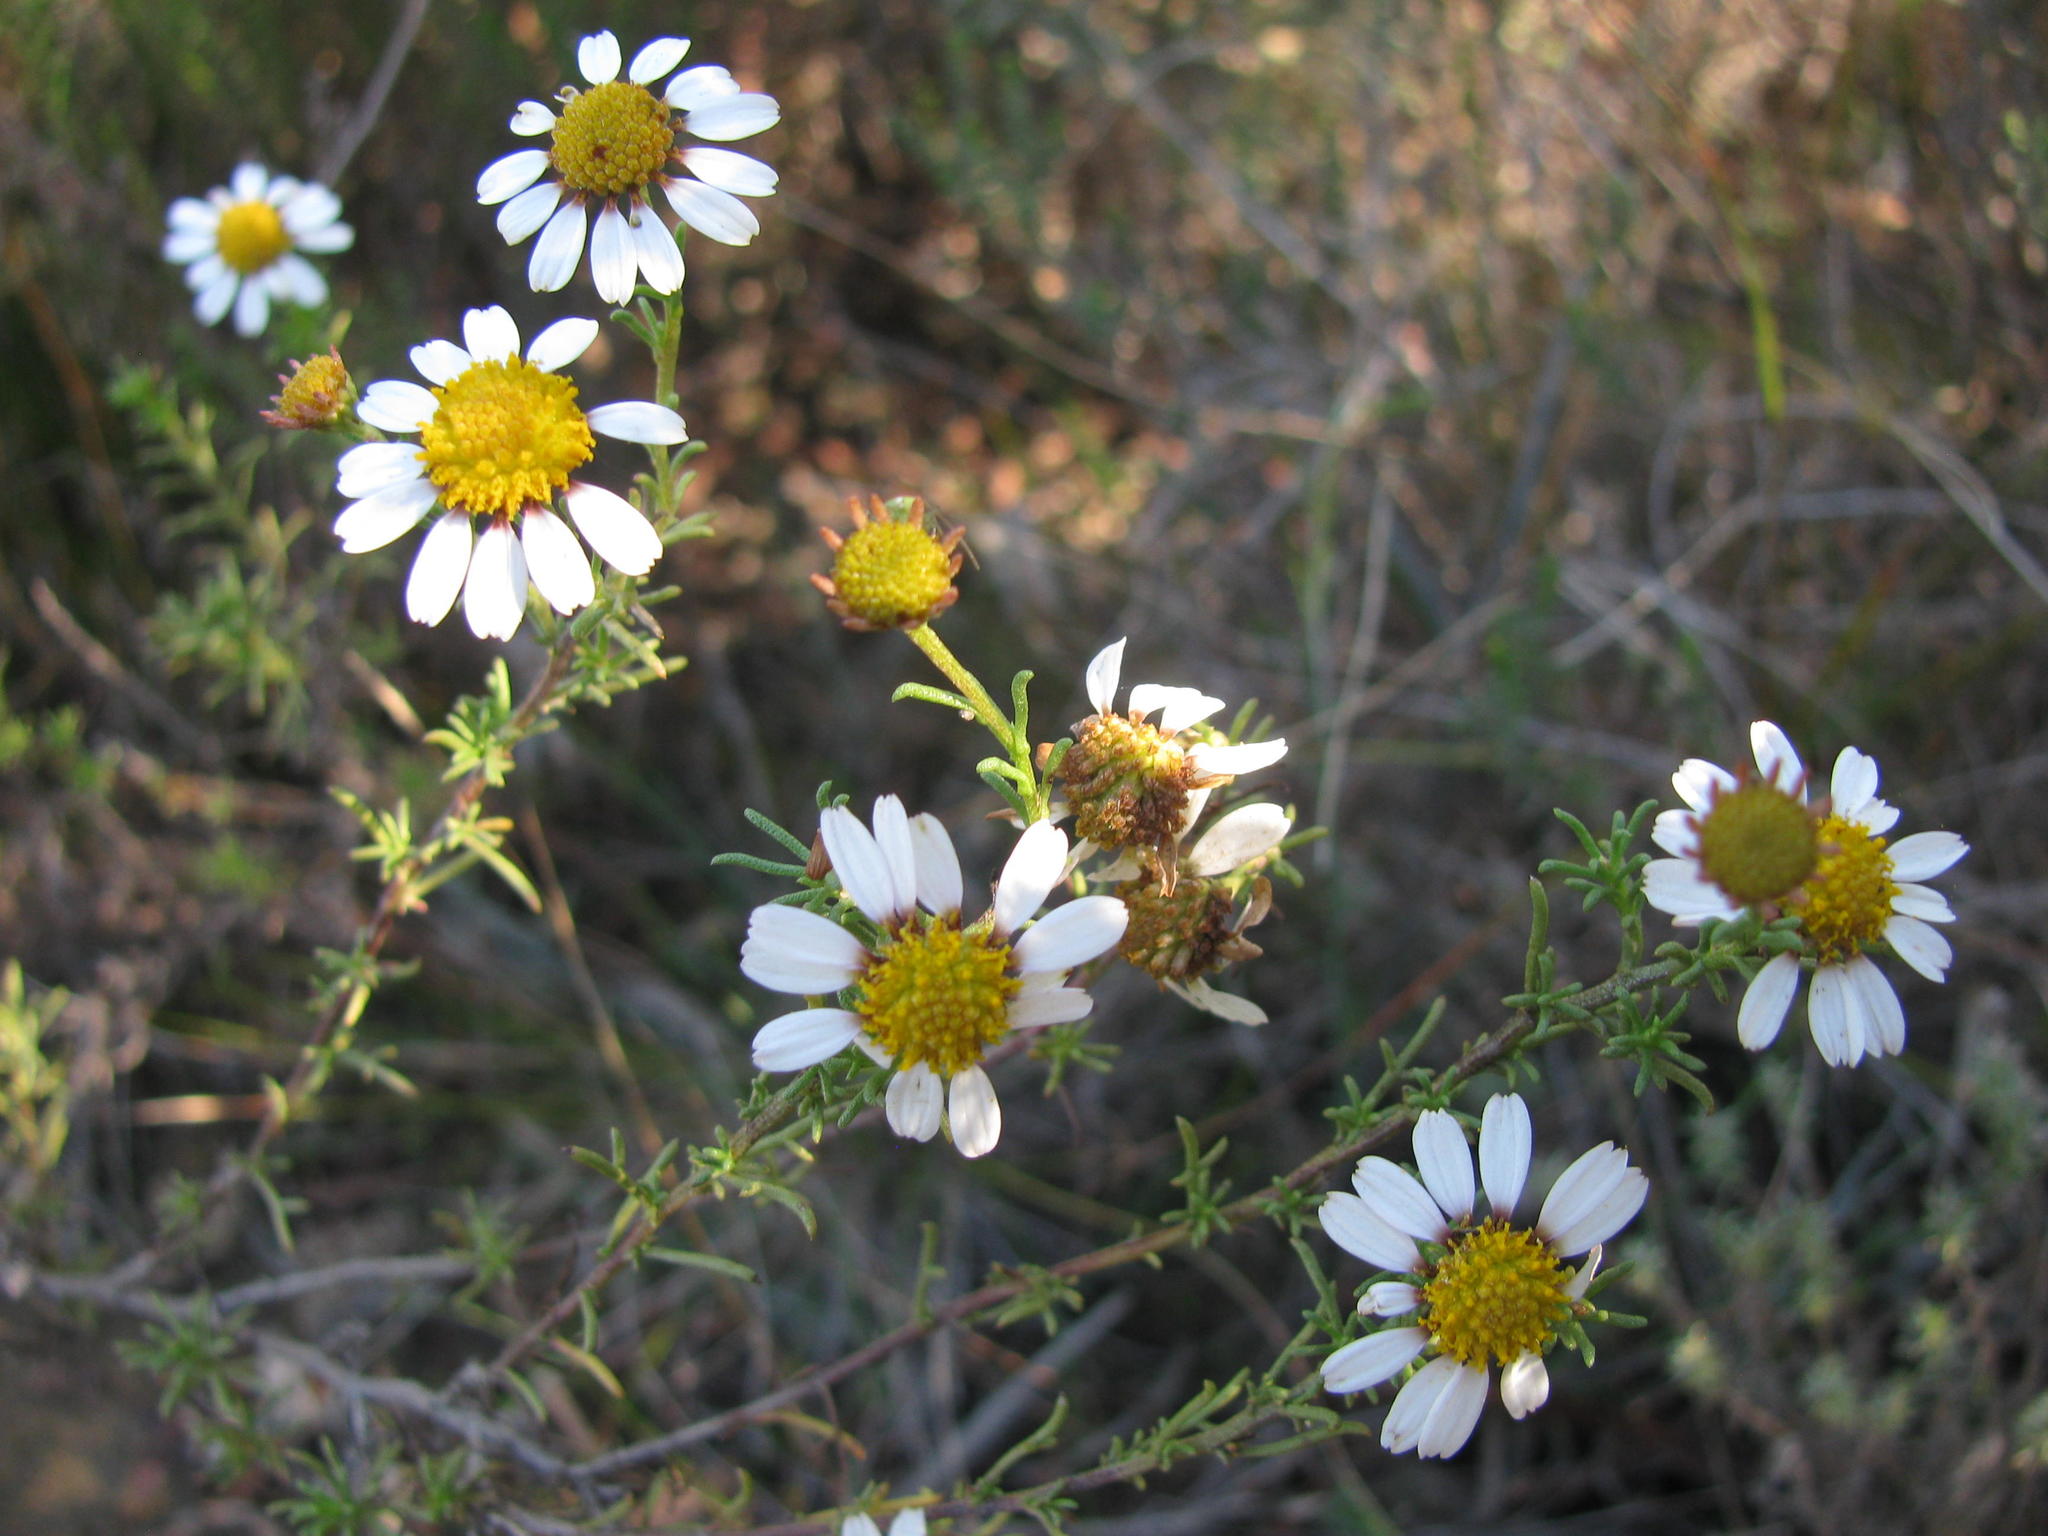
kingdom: Plantae
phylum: Tracheophyta
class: Magnoliopsida
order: Asterales
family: Asteraceae
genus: Cymbopappus
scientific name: Cymbopappus adenosolen
